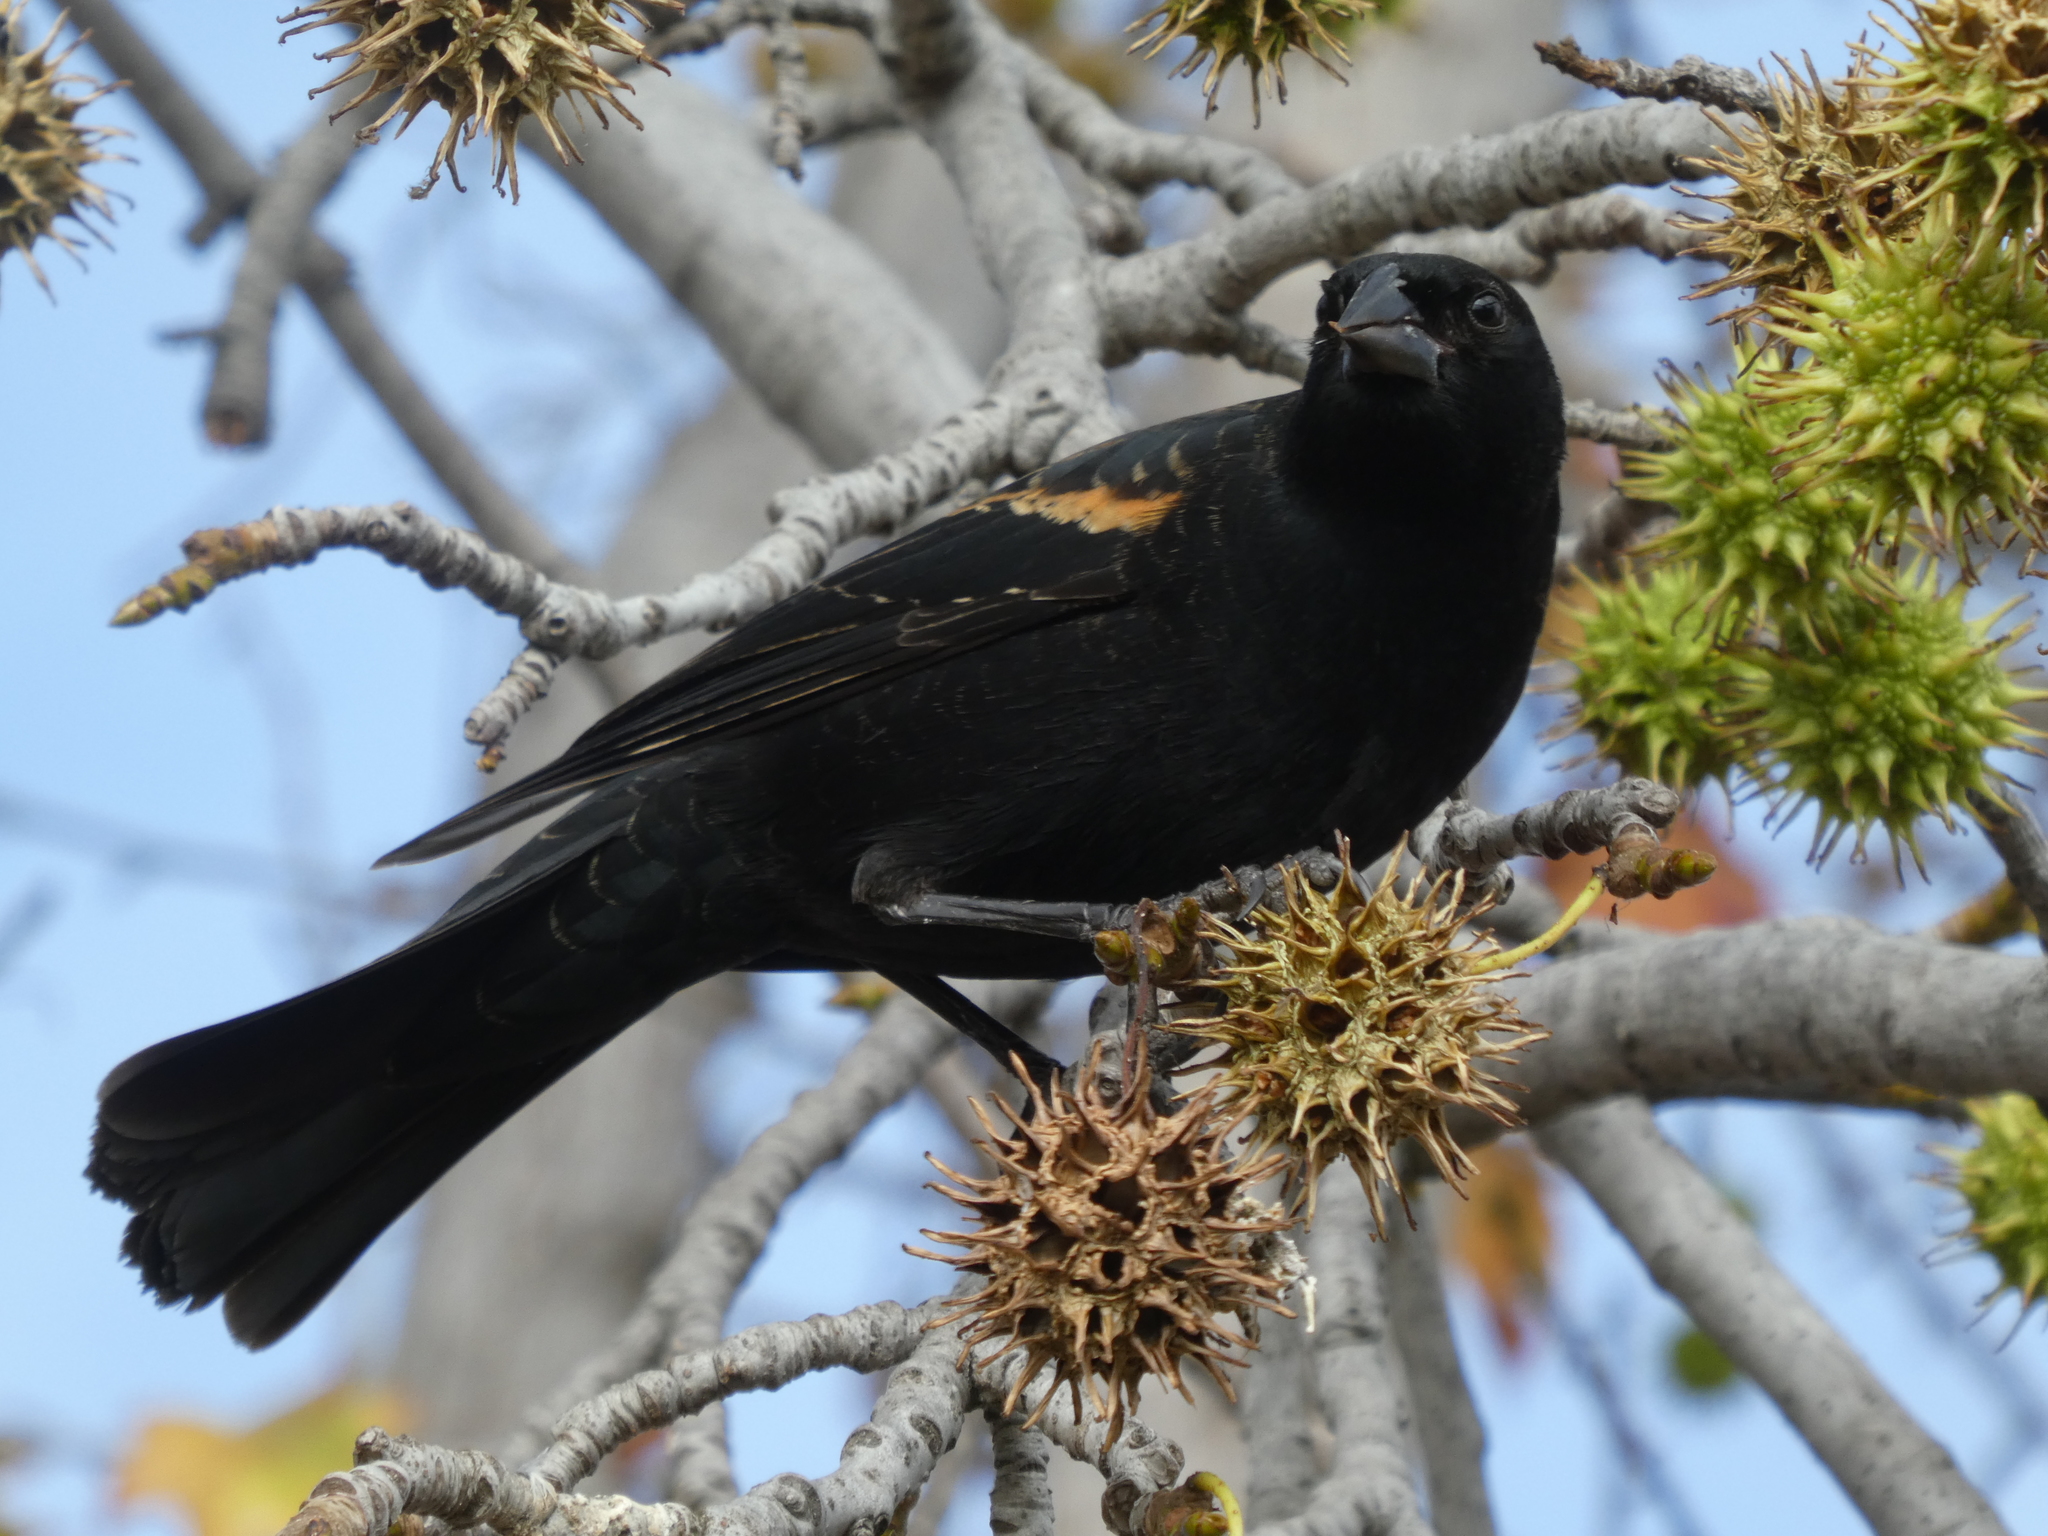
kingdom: Animalia
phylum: Chordata
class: Aves
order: Passeriformes
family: Icteridae
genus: Agelaius
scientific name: Agelaius phoeniceus
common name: Red-winged blackbird
